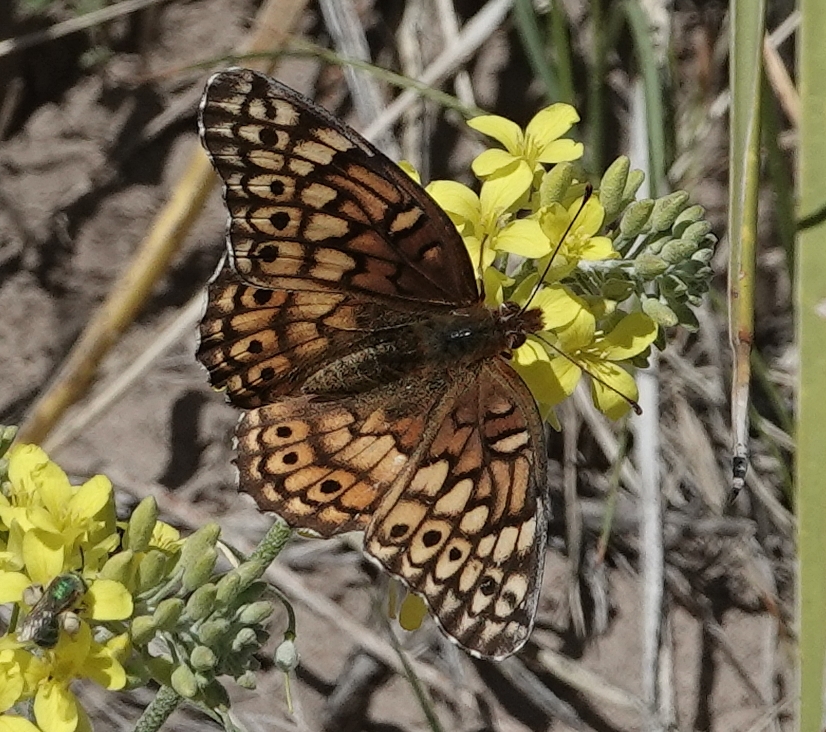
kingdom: Animalia
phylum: Arthropoda
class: Insecta
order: Lepidoptera
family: Nymphalidae
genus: Euptoieta
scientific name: Euptoieta claudia
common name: Variegated fritillary
